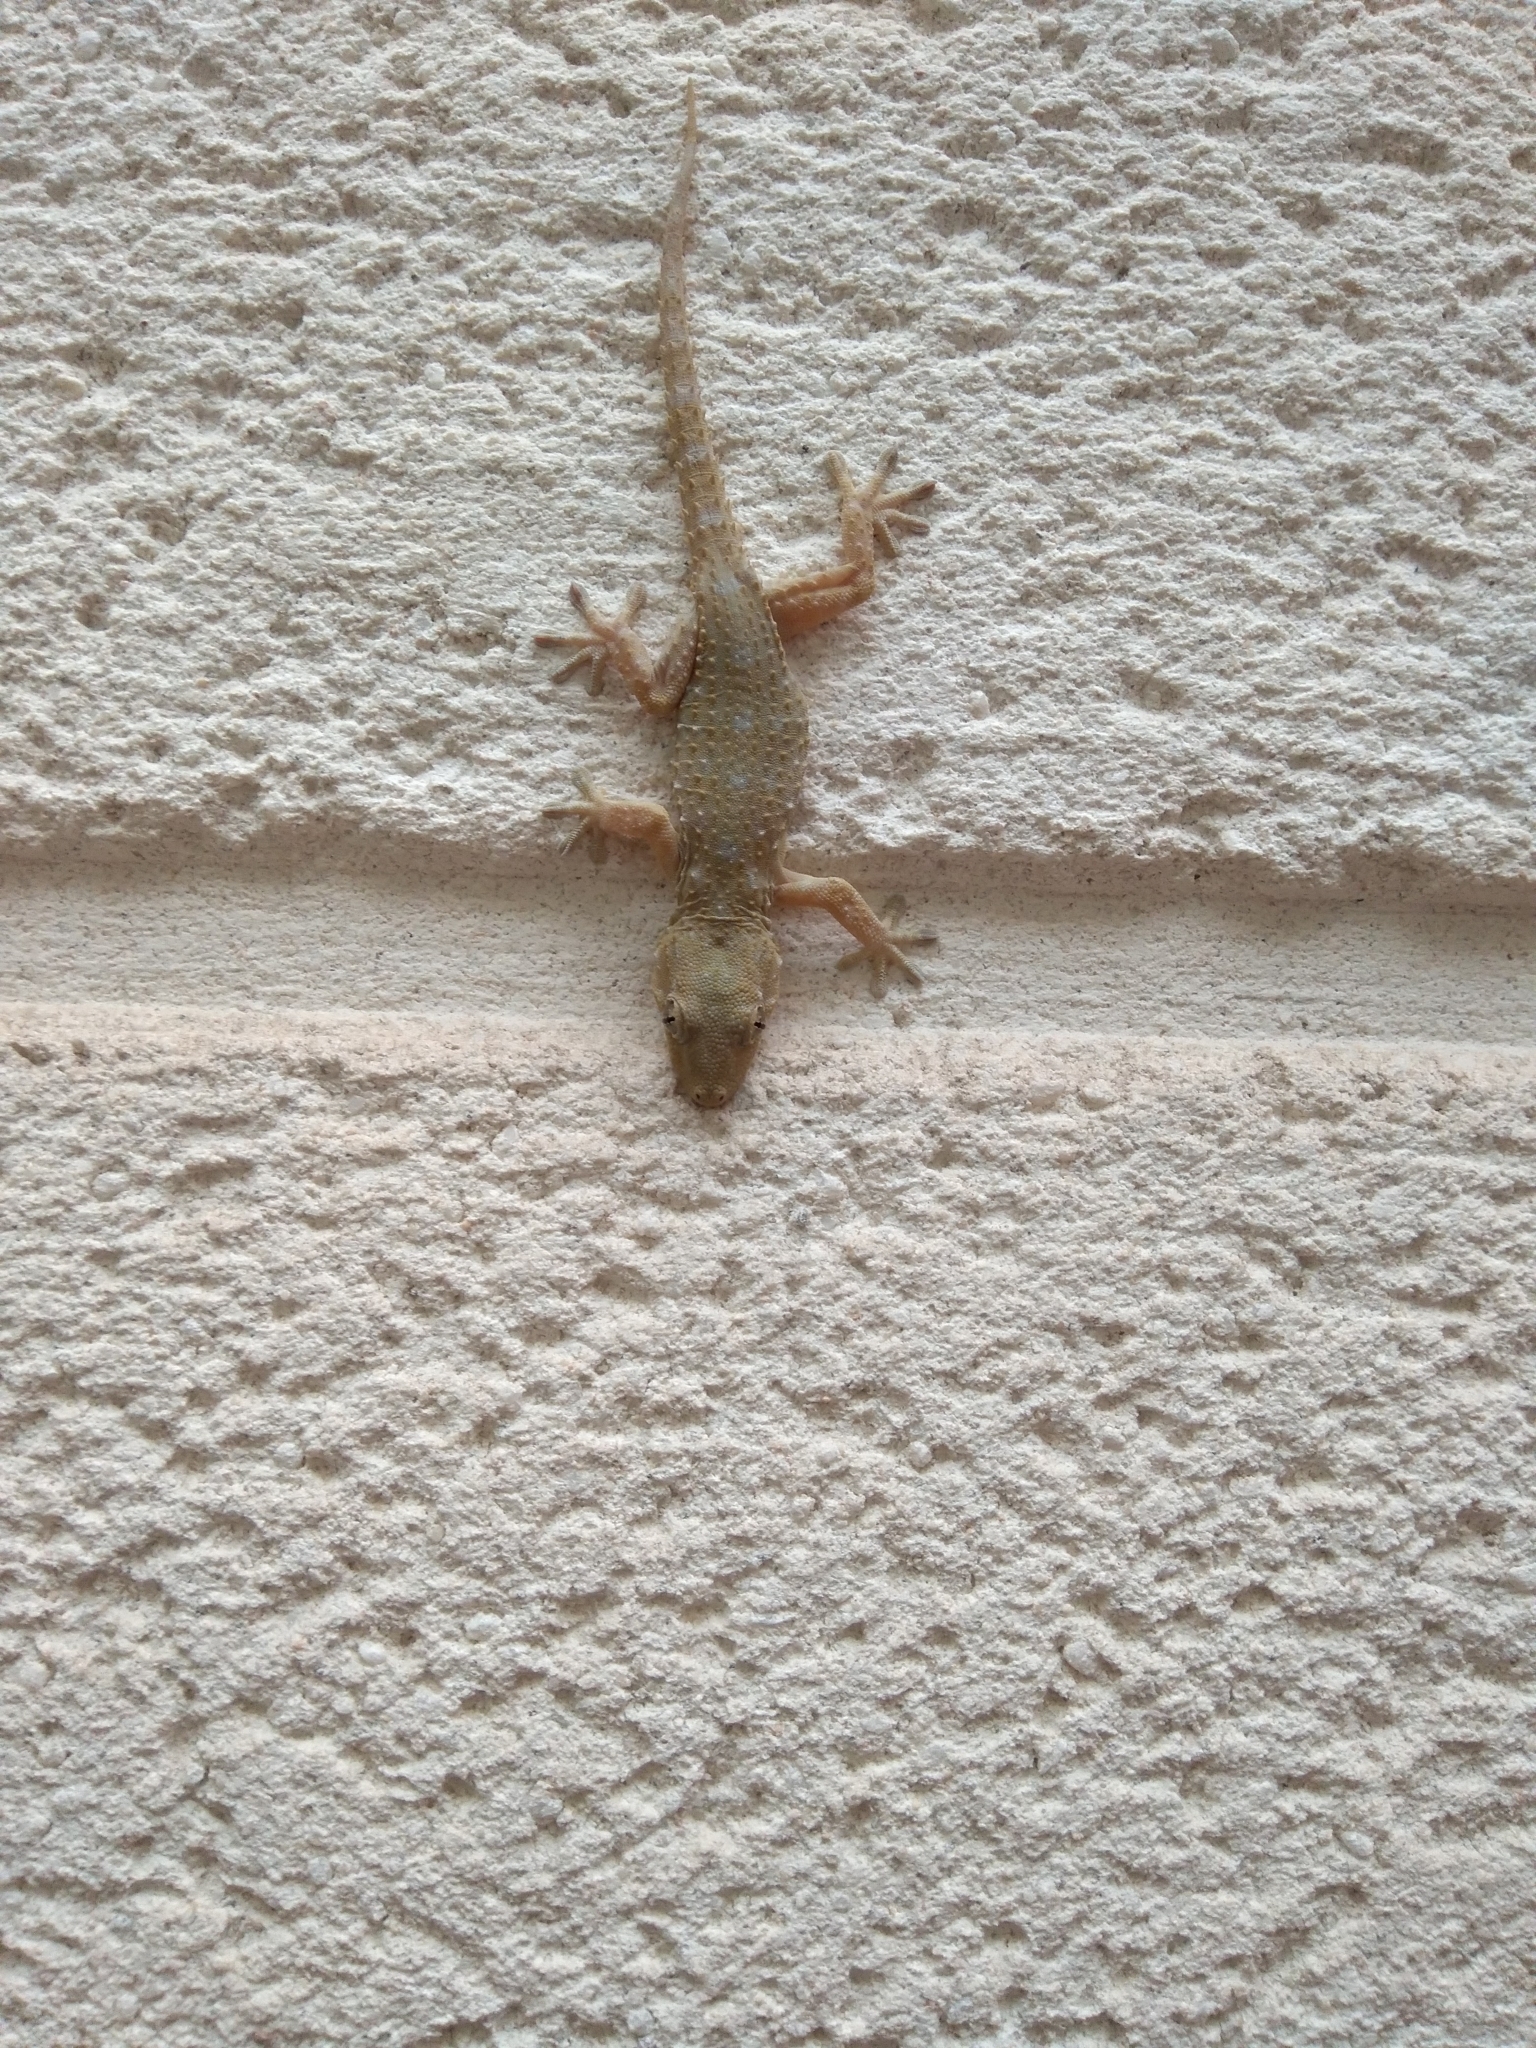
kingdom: Animalia
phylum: Chordata
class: Squamata
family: Phyllodactylidae
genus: Tarentola
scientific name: Tarentola delalandii
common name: Tenerife wall gecko
